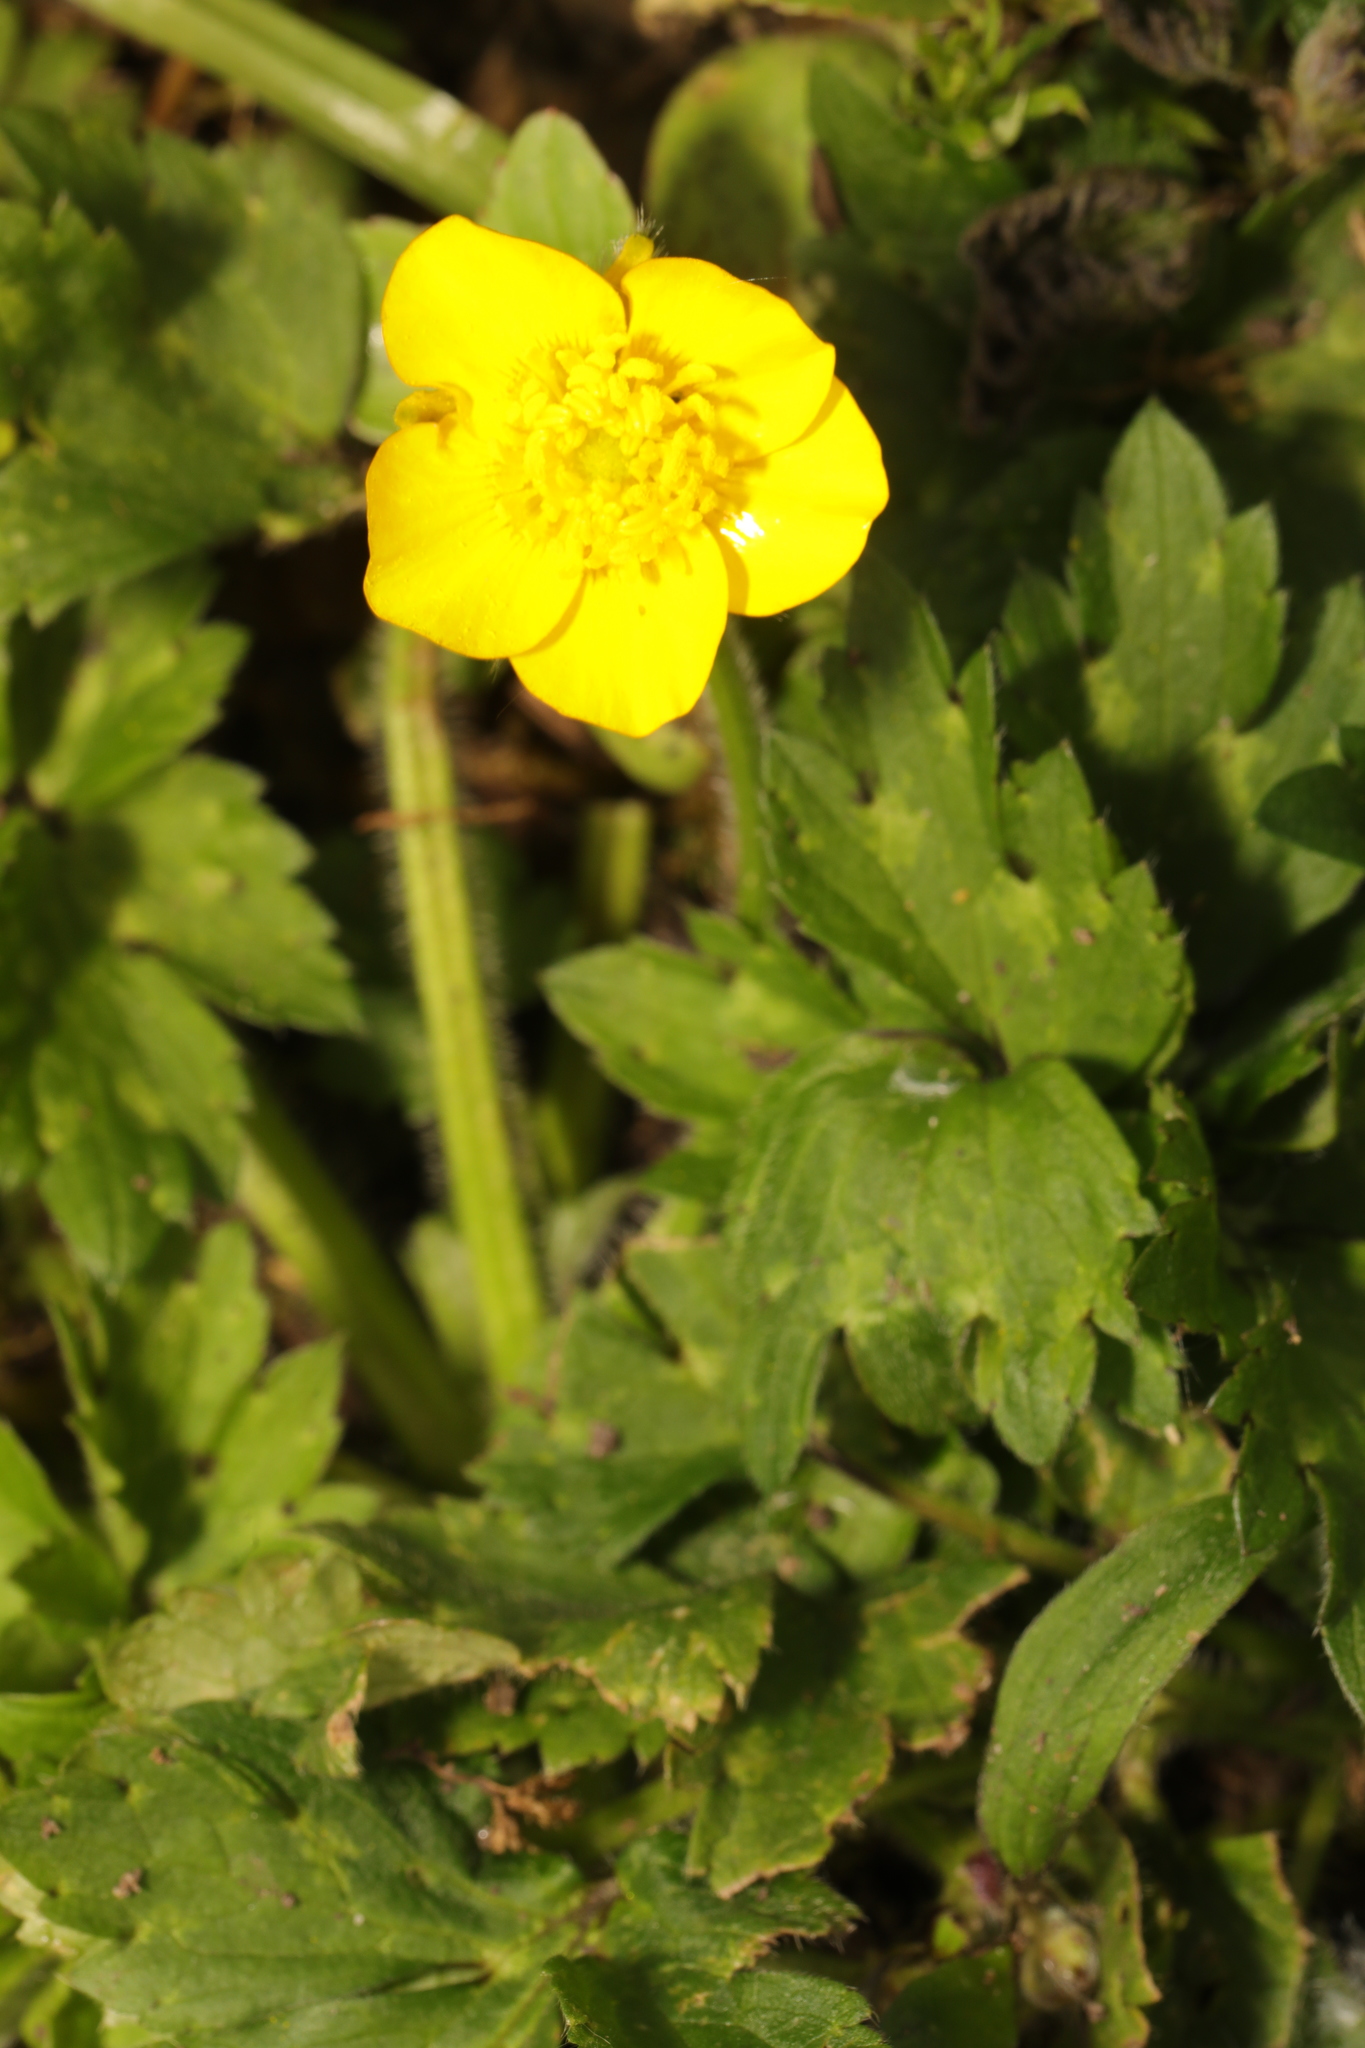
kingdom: Plantae
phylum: Tracheophyta
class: Magnoliopsida
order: Ranunculales
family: Ranunculaceae
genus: Ranunculus
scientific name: Ranunculus repens
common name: Creeping buttercup
